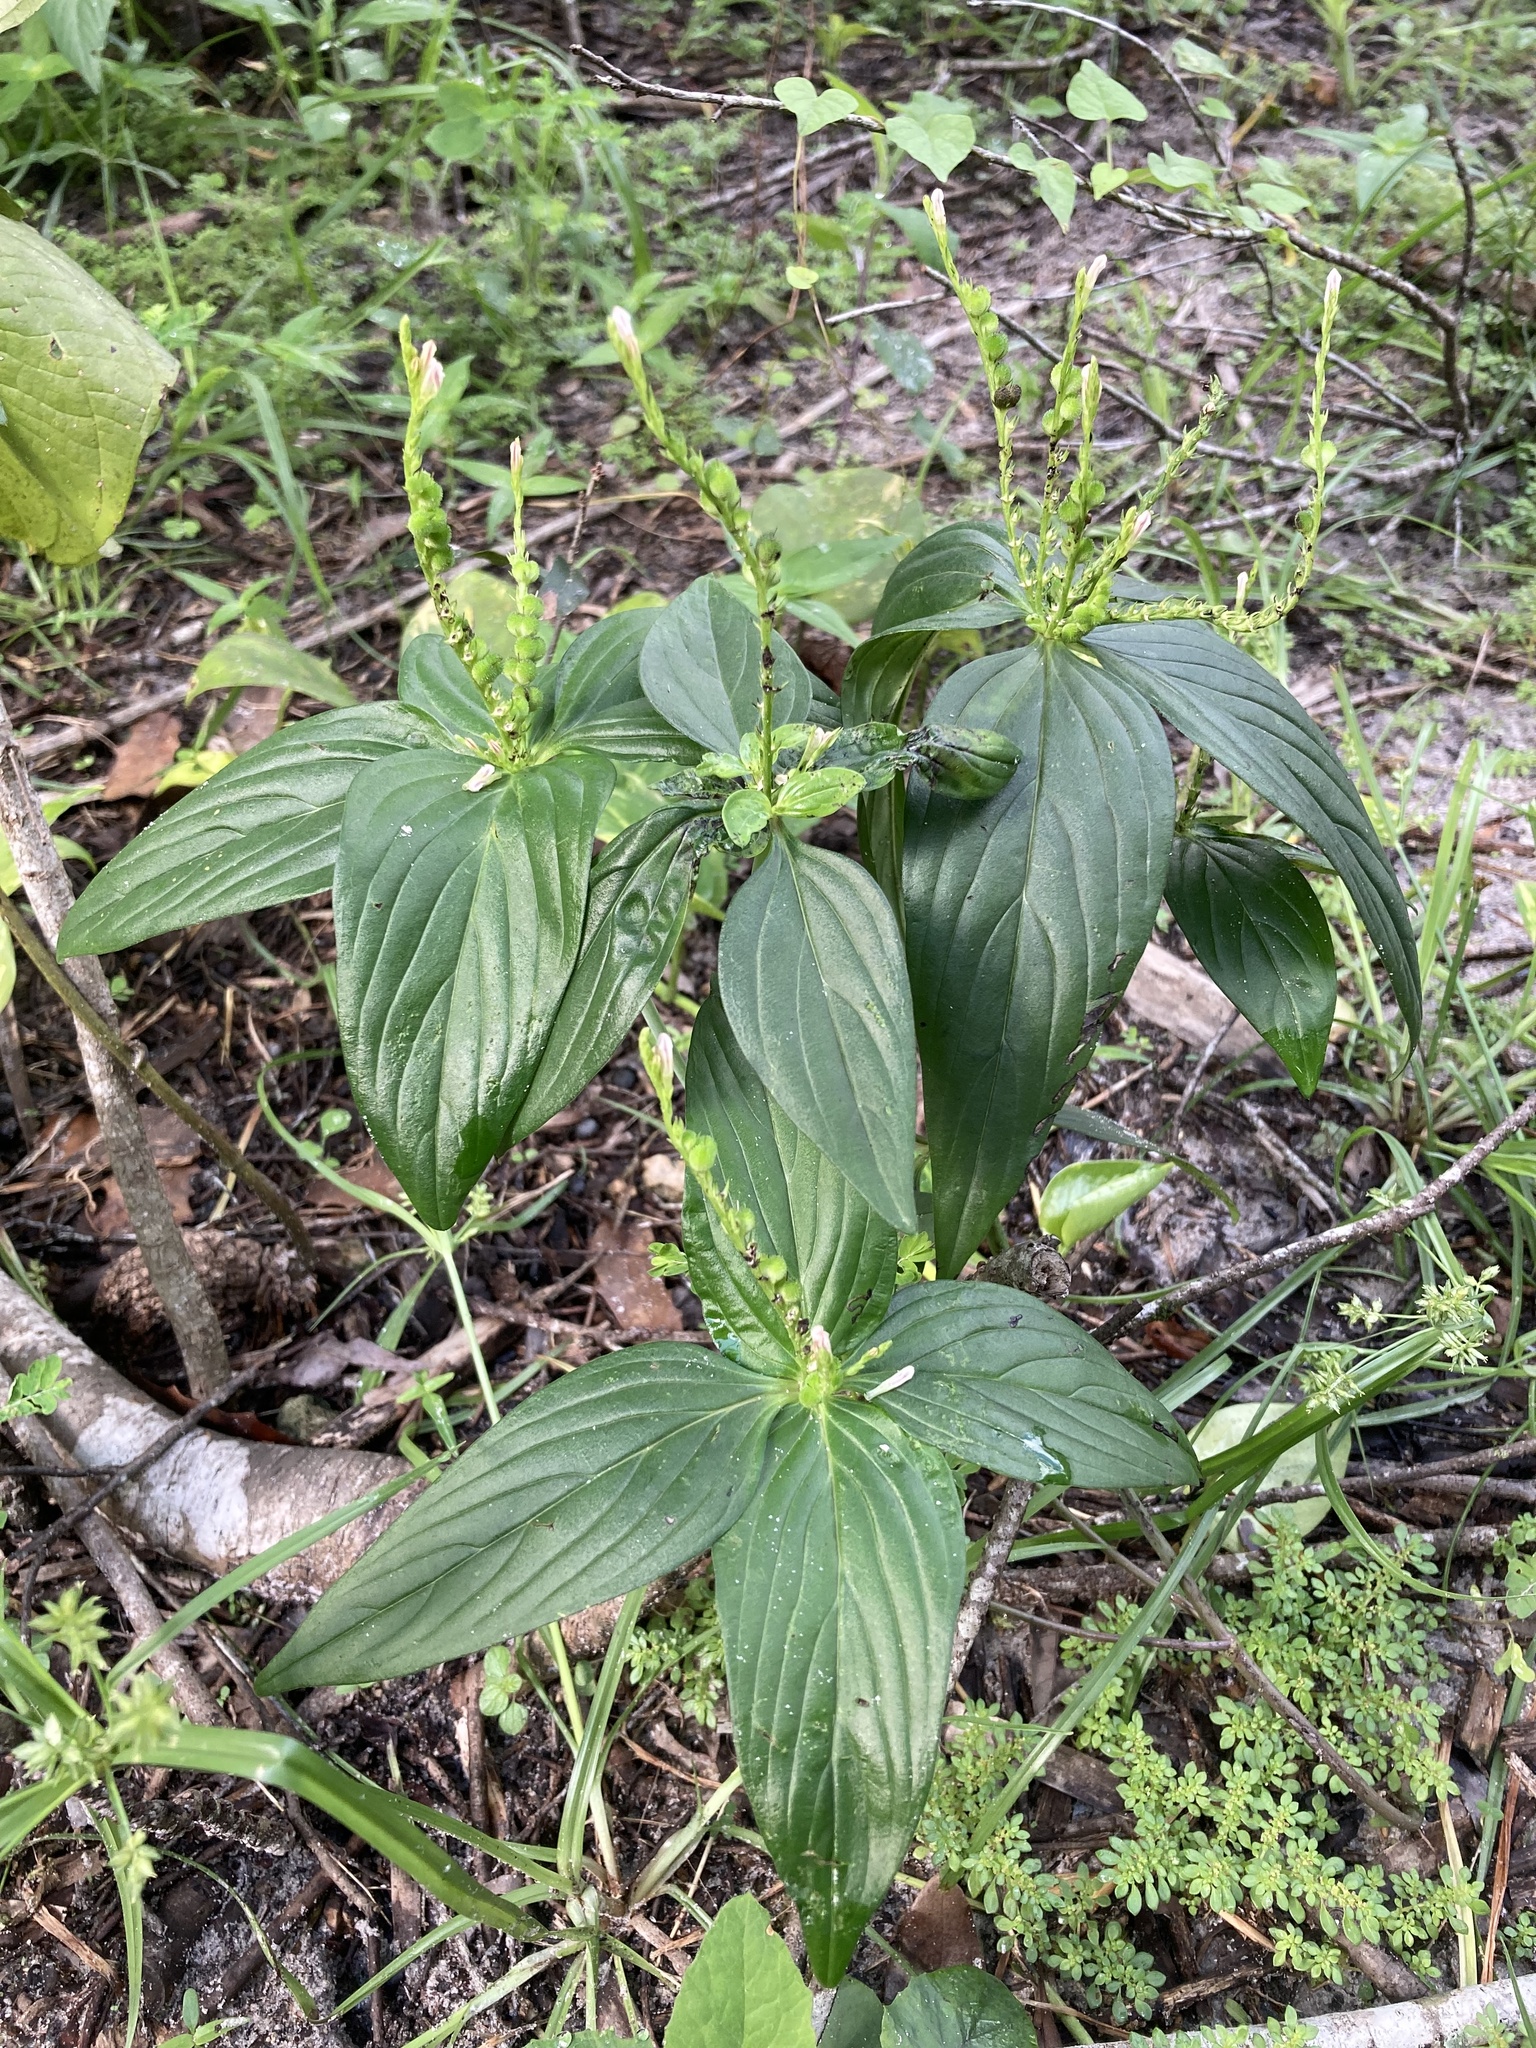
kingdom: Plantae
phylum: Tracheophyta
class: Magnoliopsida
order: Gentianales
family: Loganiaceae
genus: Spigelia
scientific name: Spigelia anthelmia
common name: West indian-pink
